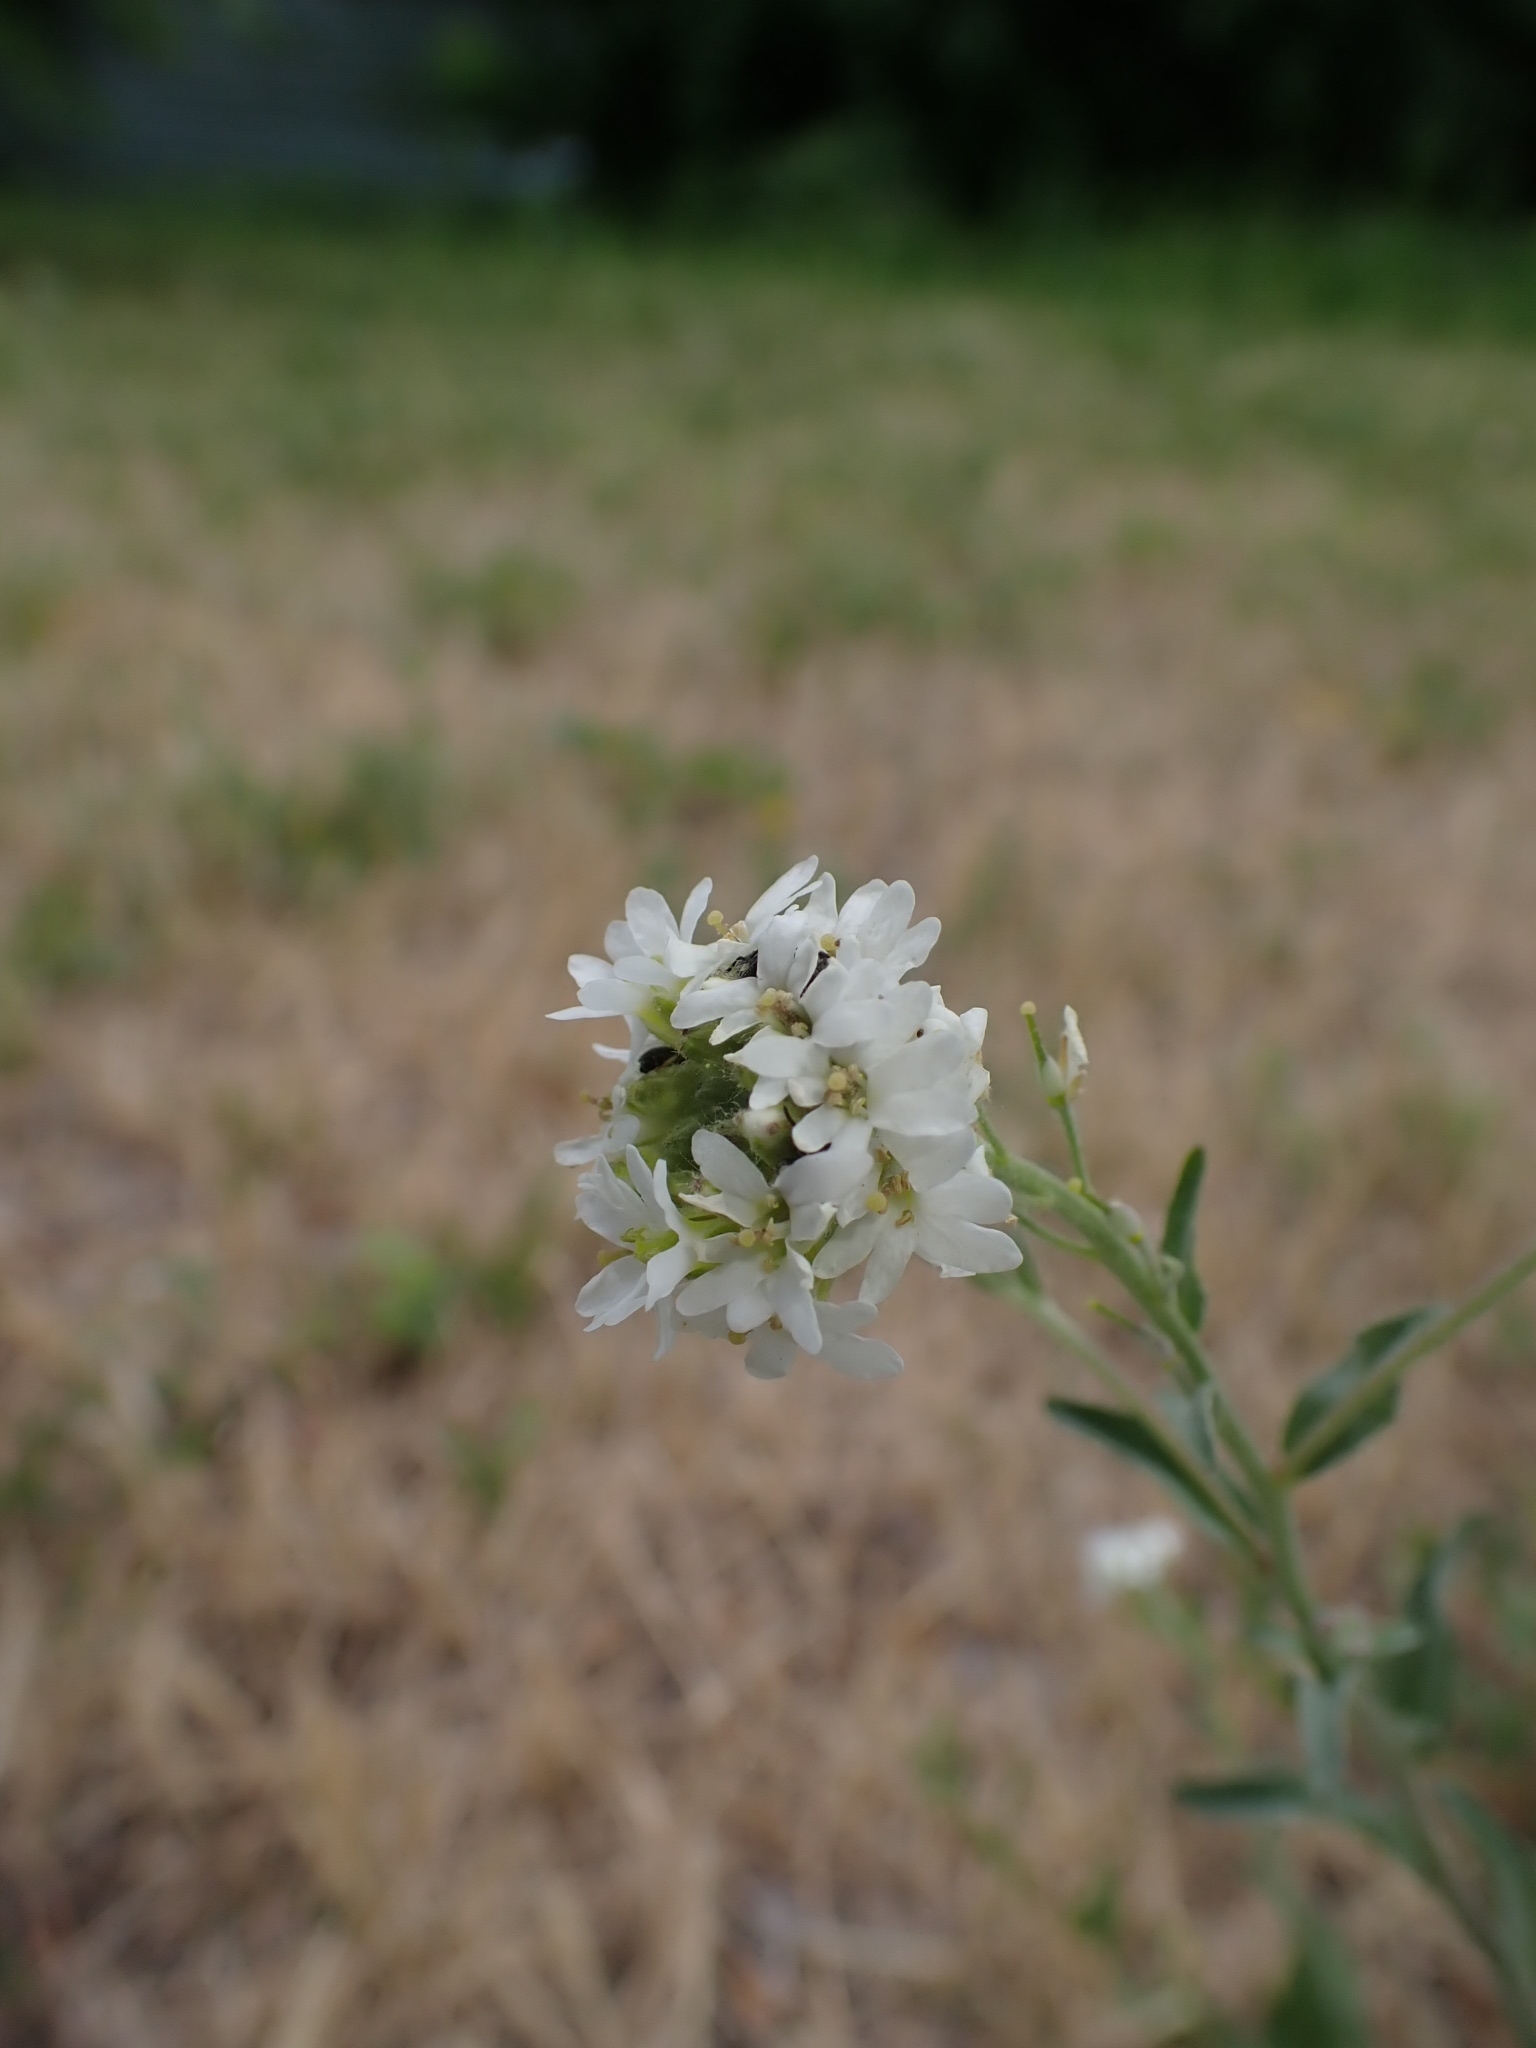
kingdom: Plantae
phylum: Tracheophyta
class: Magnoliopsida
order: Brassicales
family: Brassicaceae
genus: Berteroa
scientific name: Berteroa incana
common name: Hoary alison
